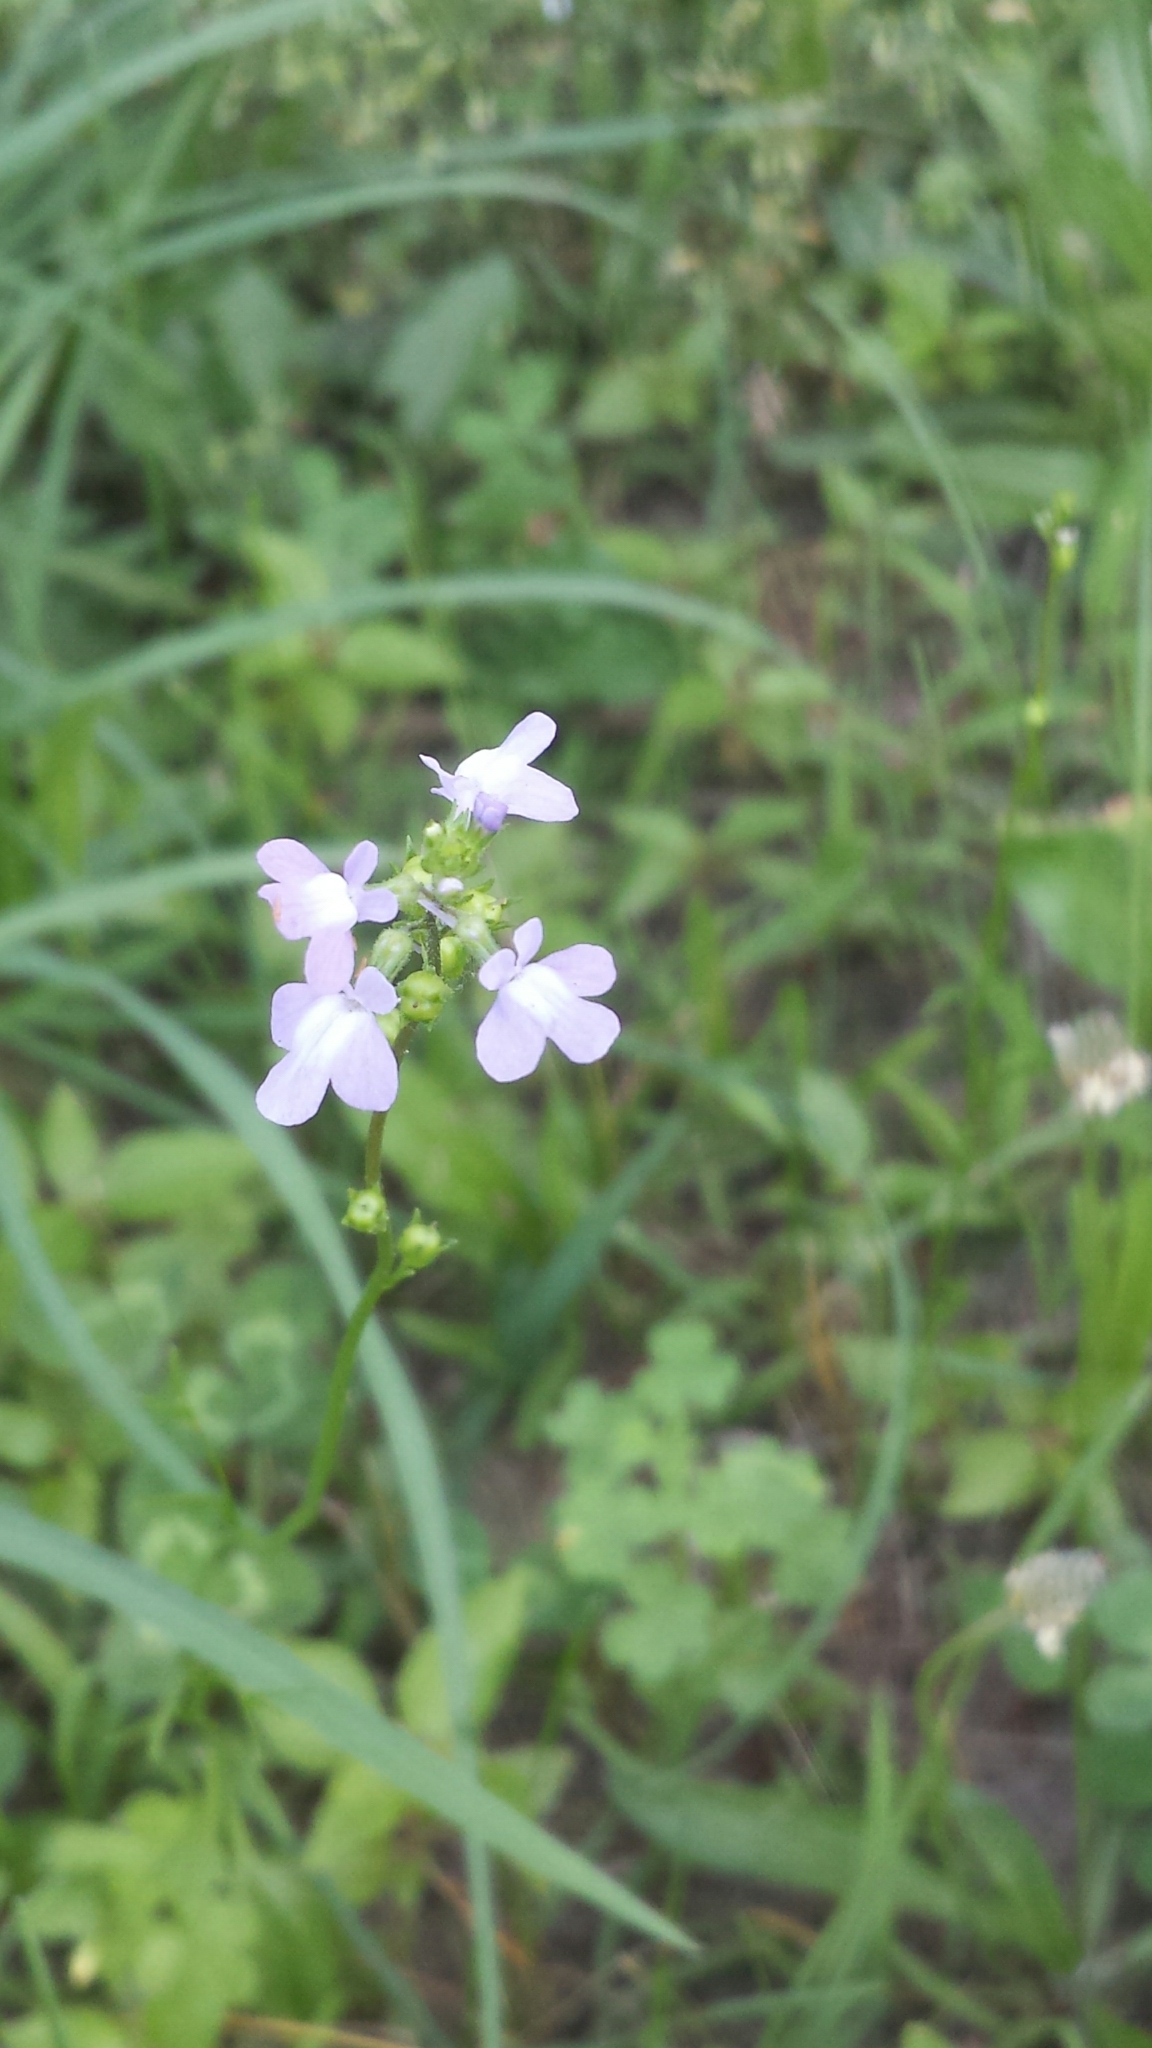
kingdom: Plantae
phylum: Tracheophyta
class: Magnoliopsida
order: Lamiales
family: Plantaginaceae
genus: Nuttallanthus
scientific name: Nuttallanthus canadensis
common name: Blue toadflax
